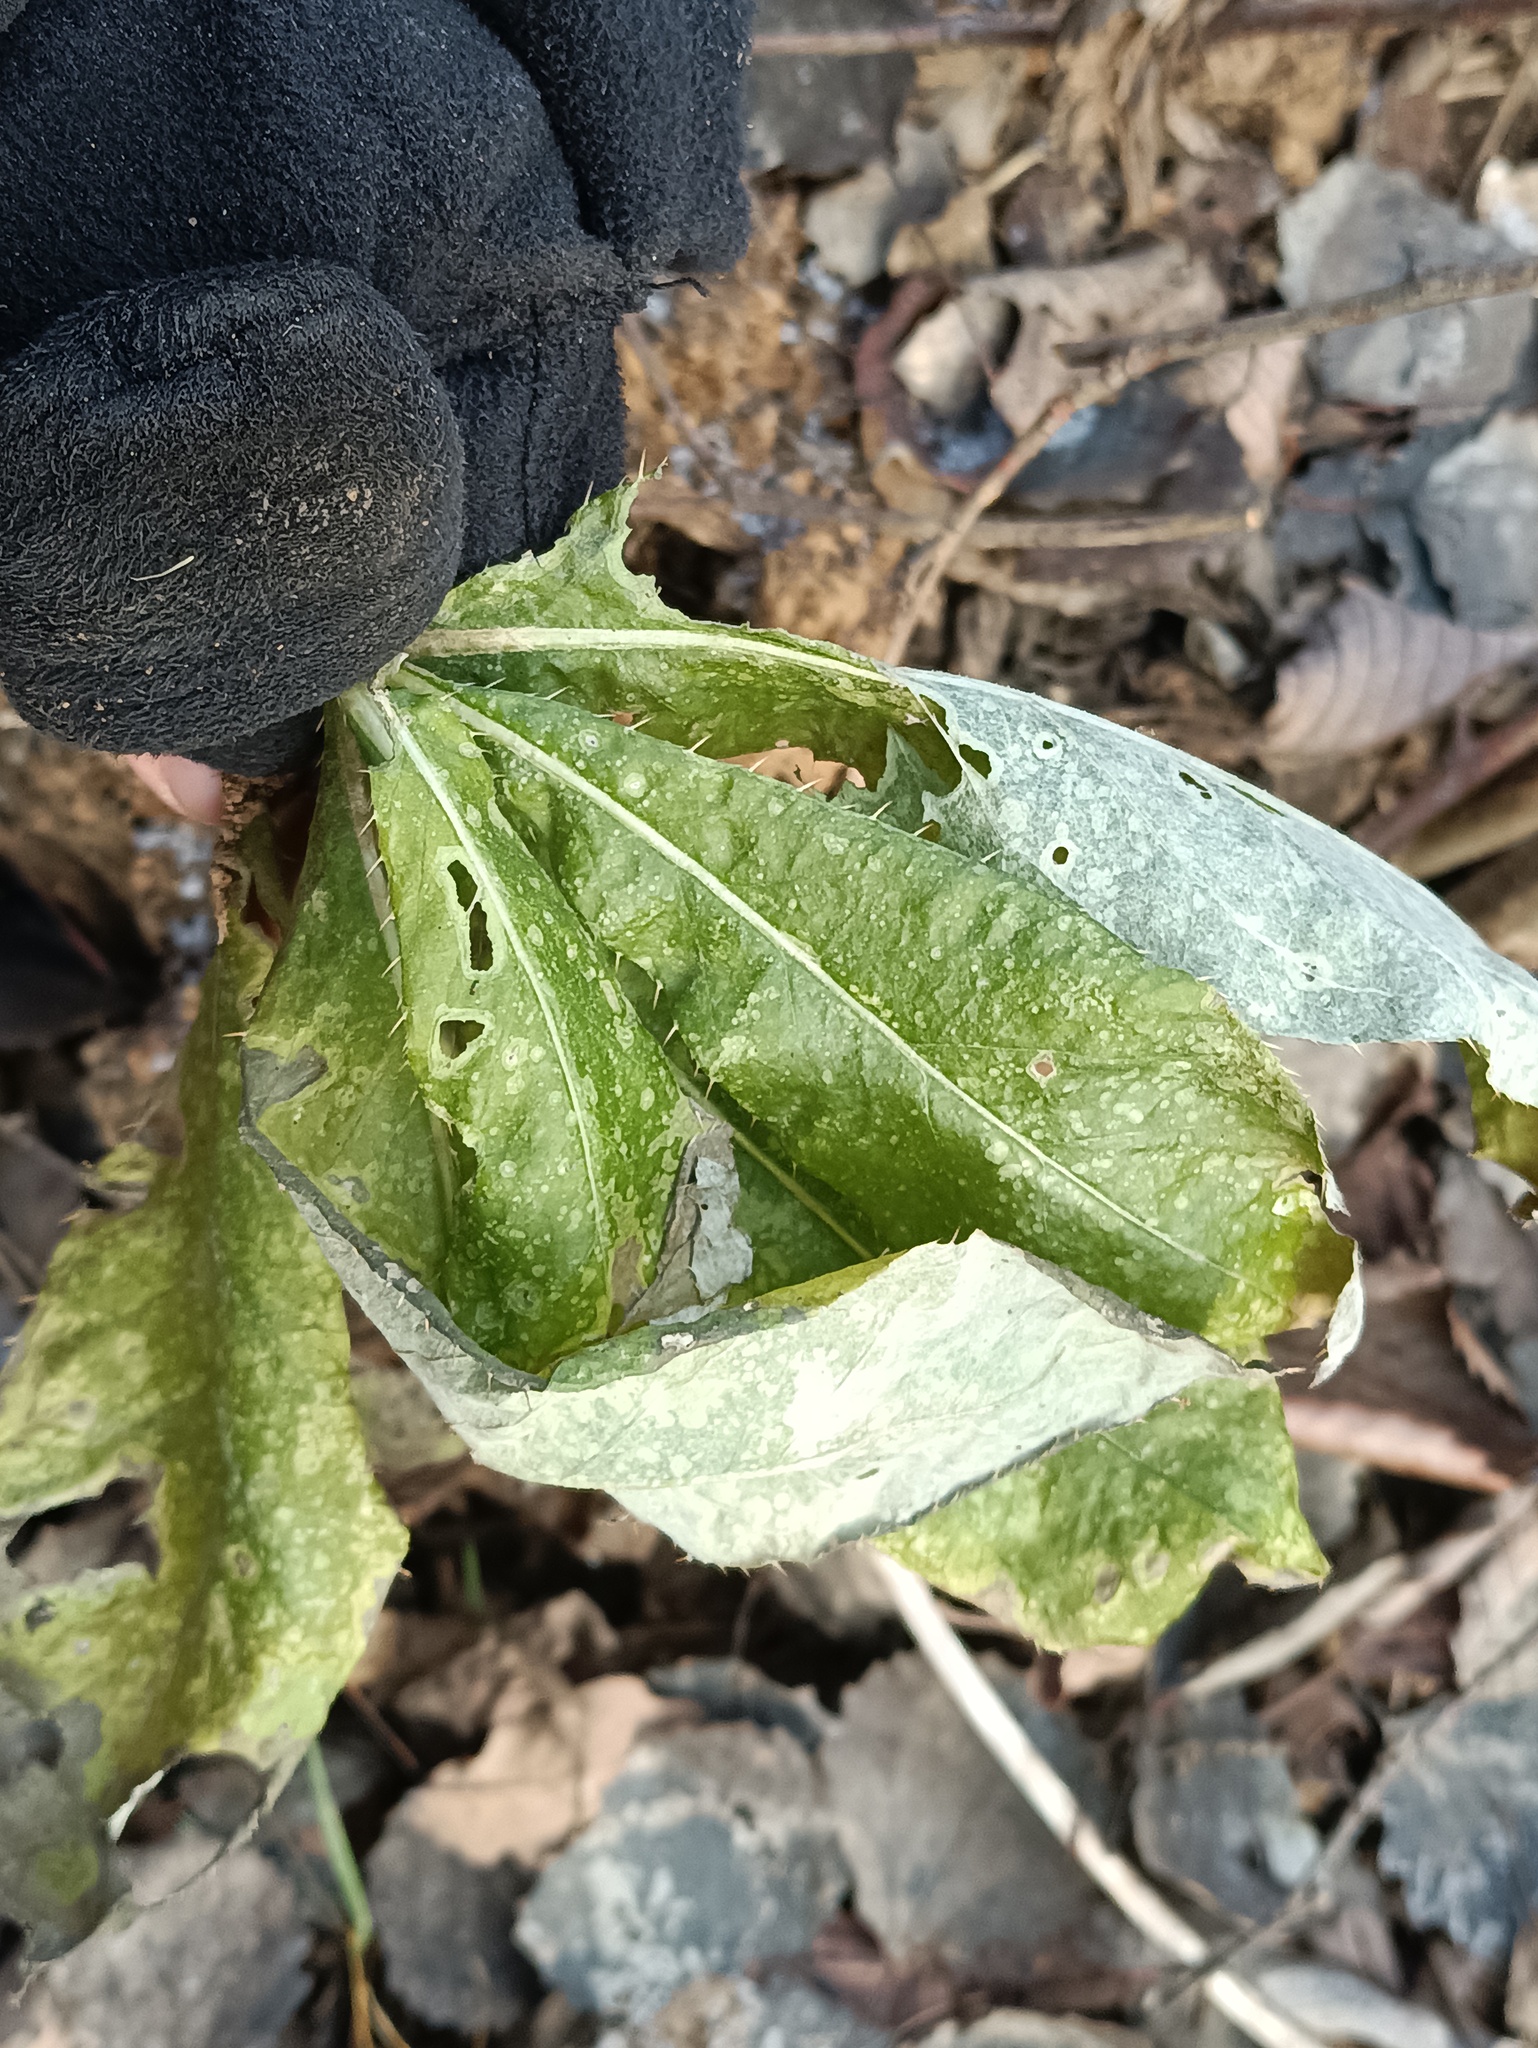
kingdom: Plantae
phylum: Tracheophyta
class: Magnoliopsida
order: Asterales
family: Asteraceae
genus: Cirsium
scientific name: Cirsium arvense
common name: Creeping thistle
